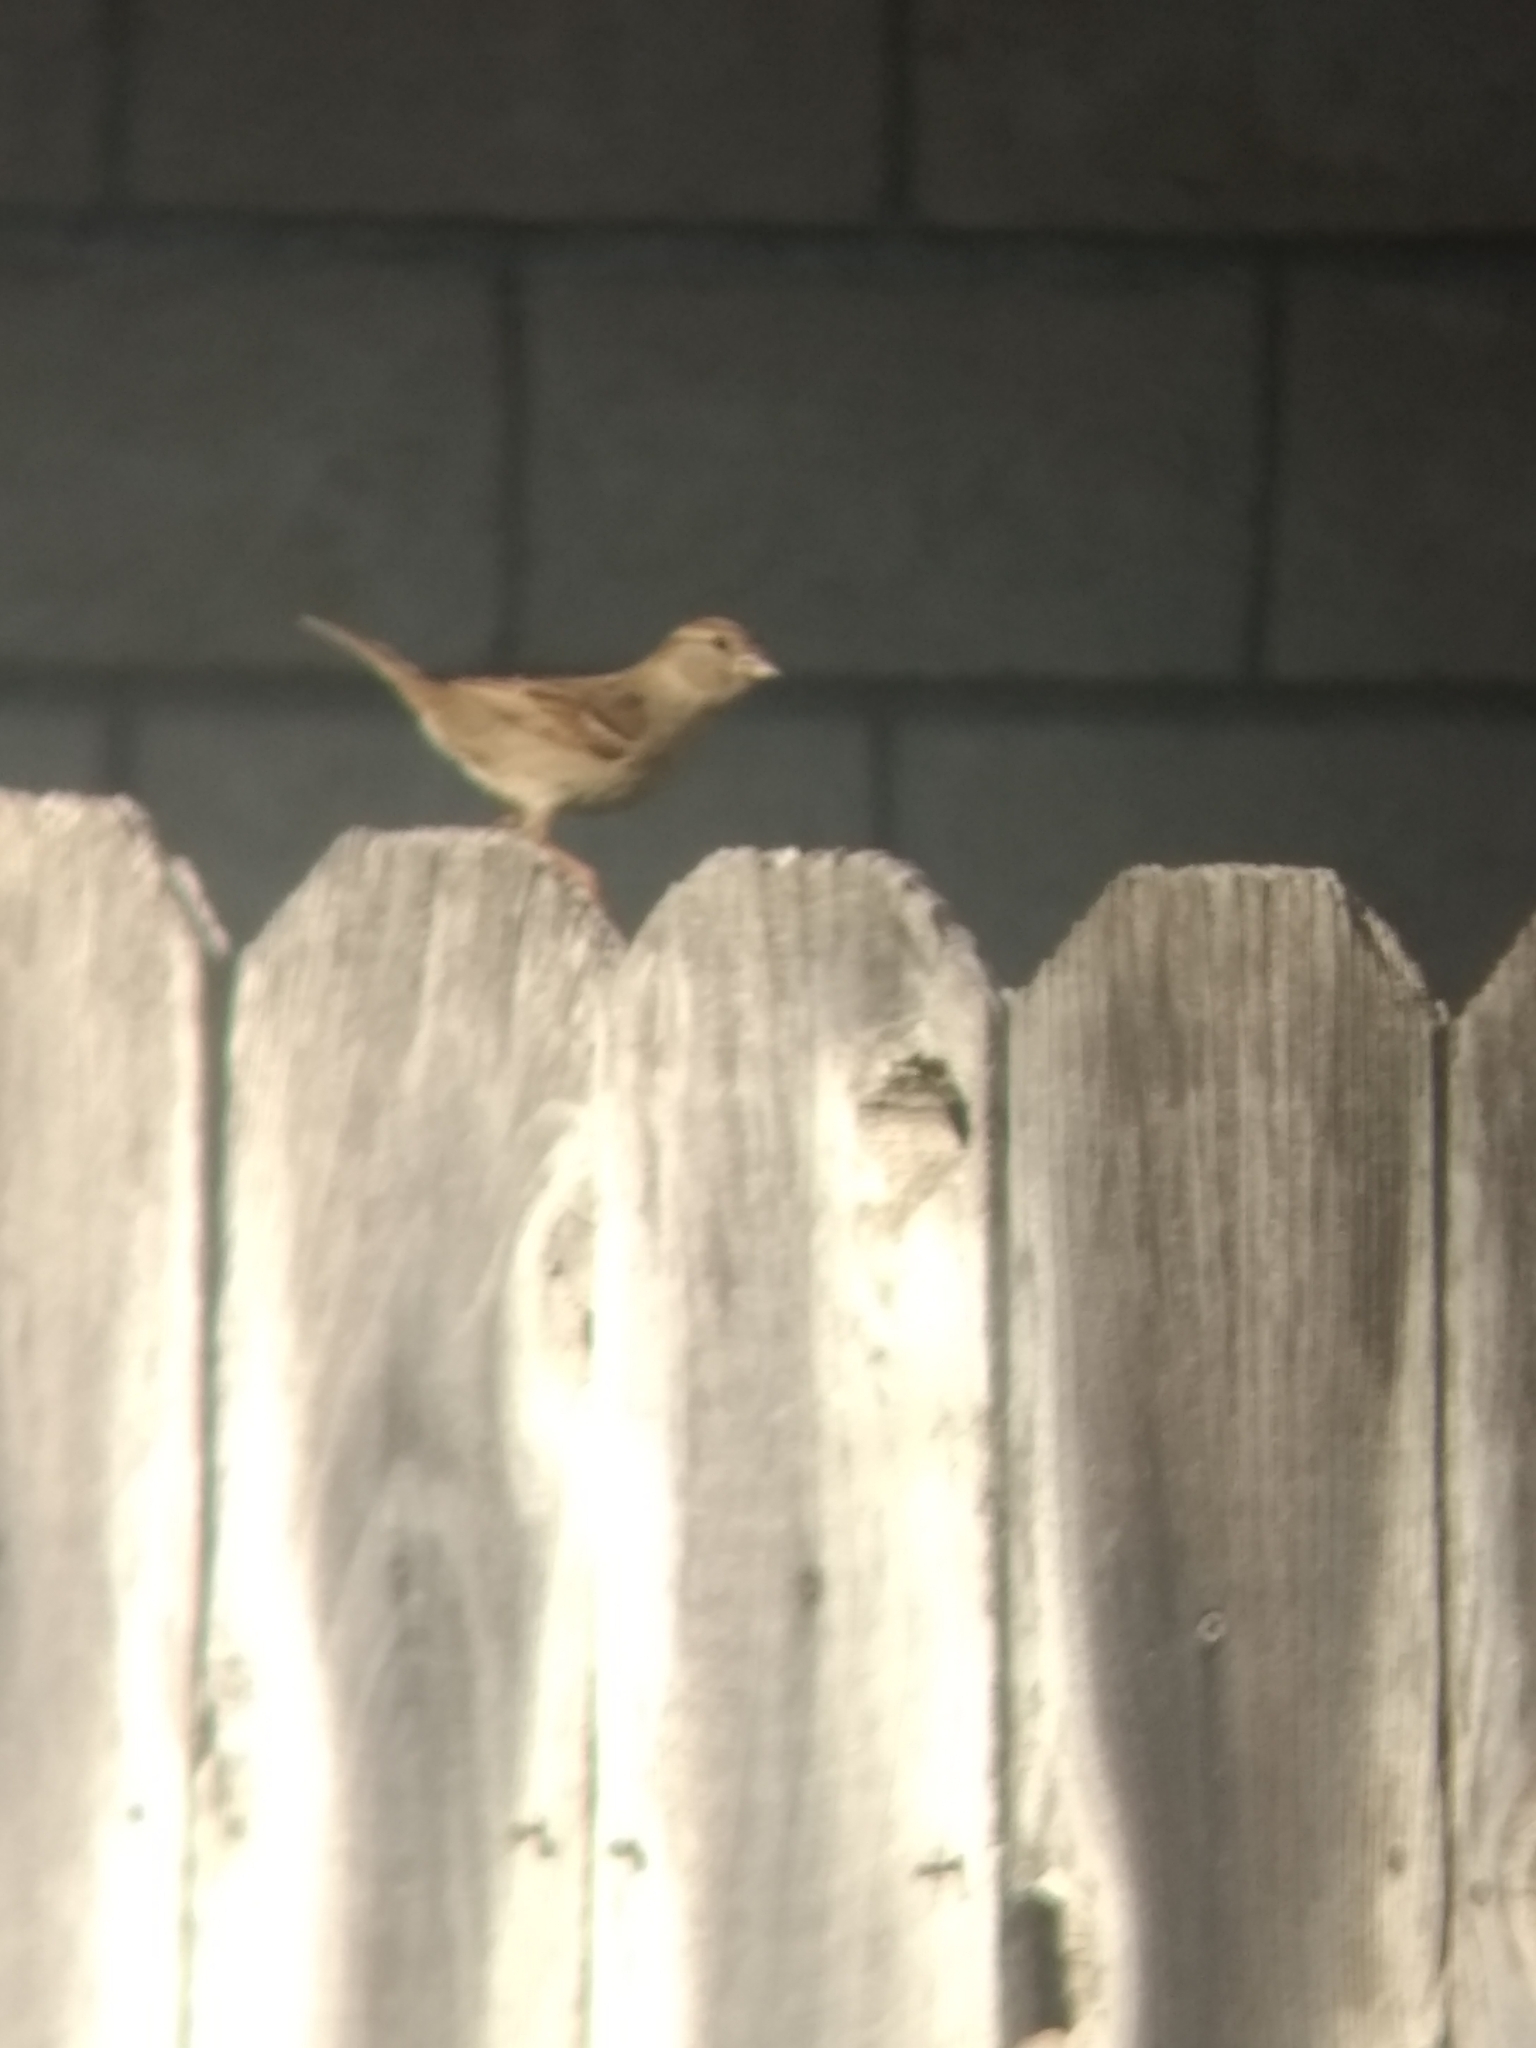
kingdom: Animalia
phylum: Chordata
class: Aves
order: Passeriformes
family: Passeridae
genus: Passer
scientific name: Passer domesticus
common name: House sparrow
